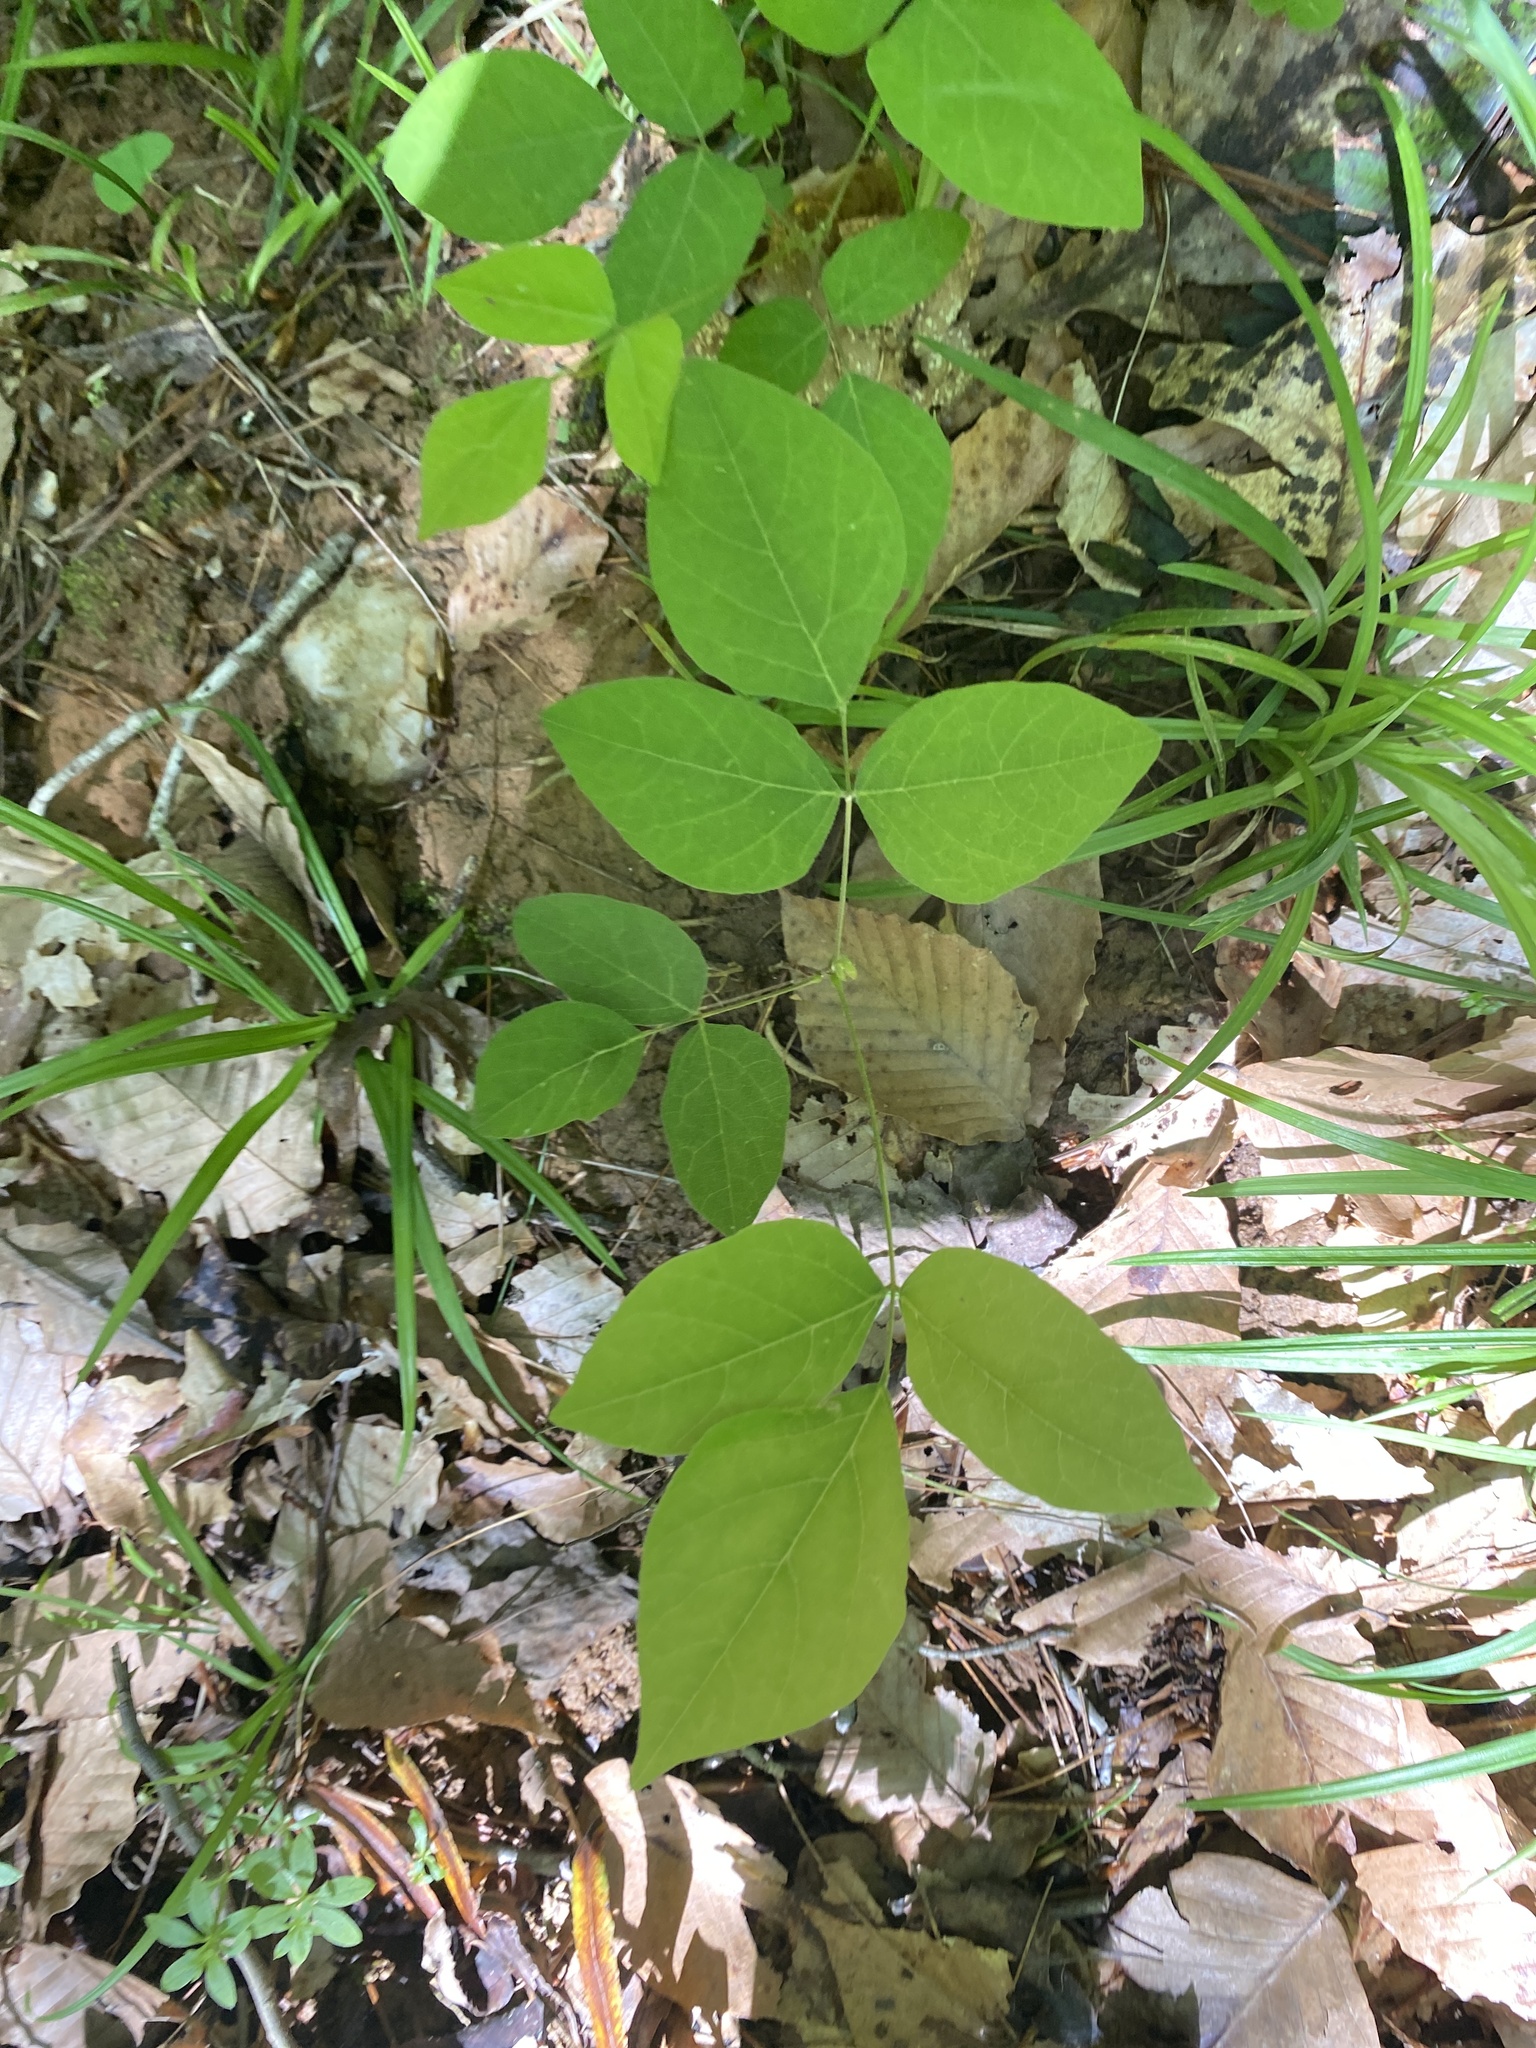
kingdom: Plantae
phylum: Tracheophyta
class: Magnoliopsida
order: Fabales
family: Fabaceae
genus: Hylodesmum
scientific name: Hylodesmum nudiflorum
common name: Bare-stemmed tick-trefoil
